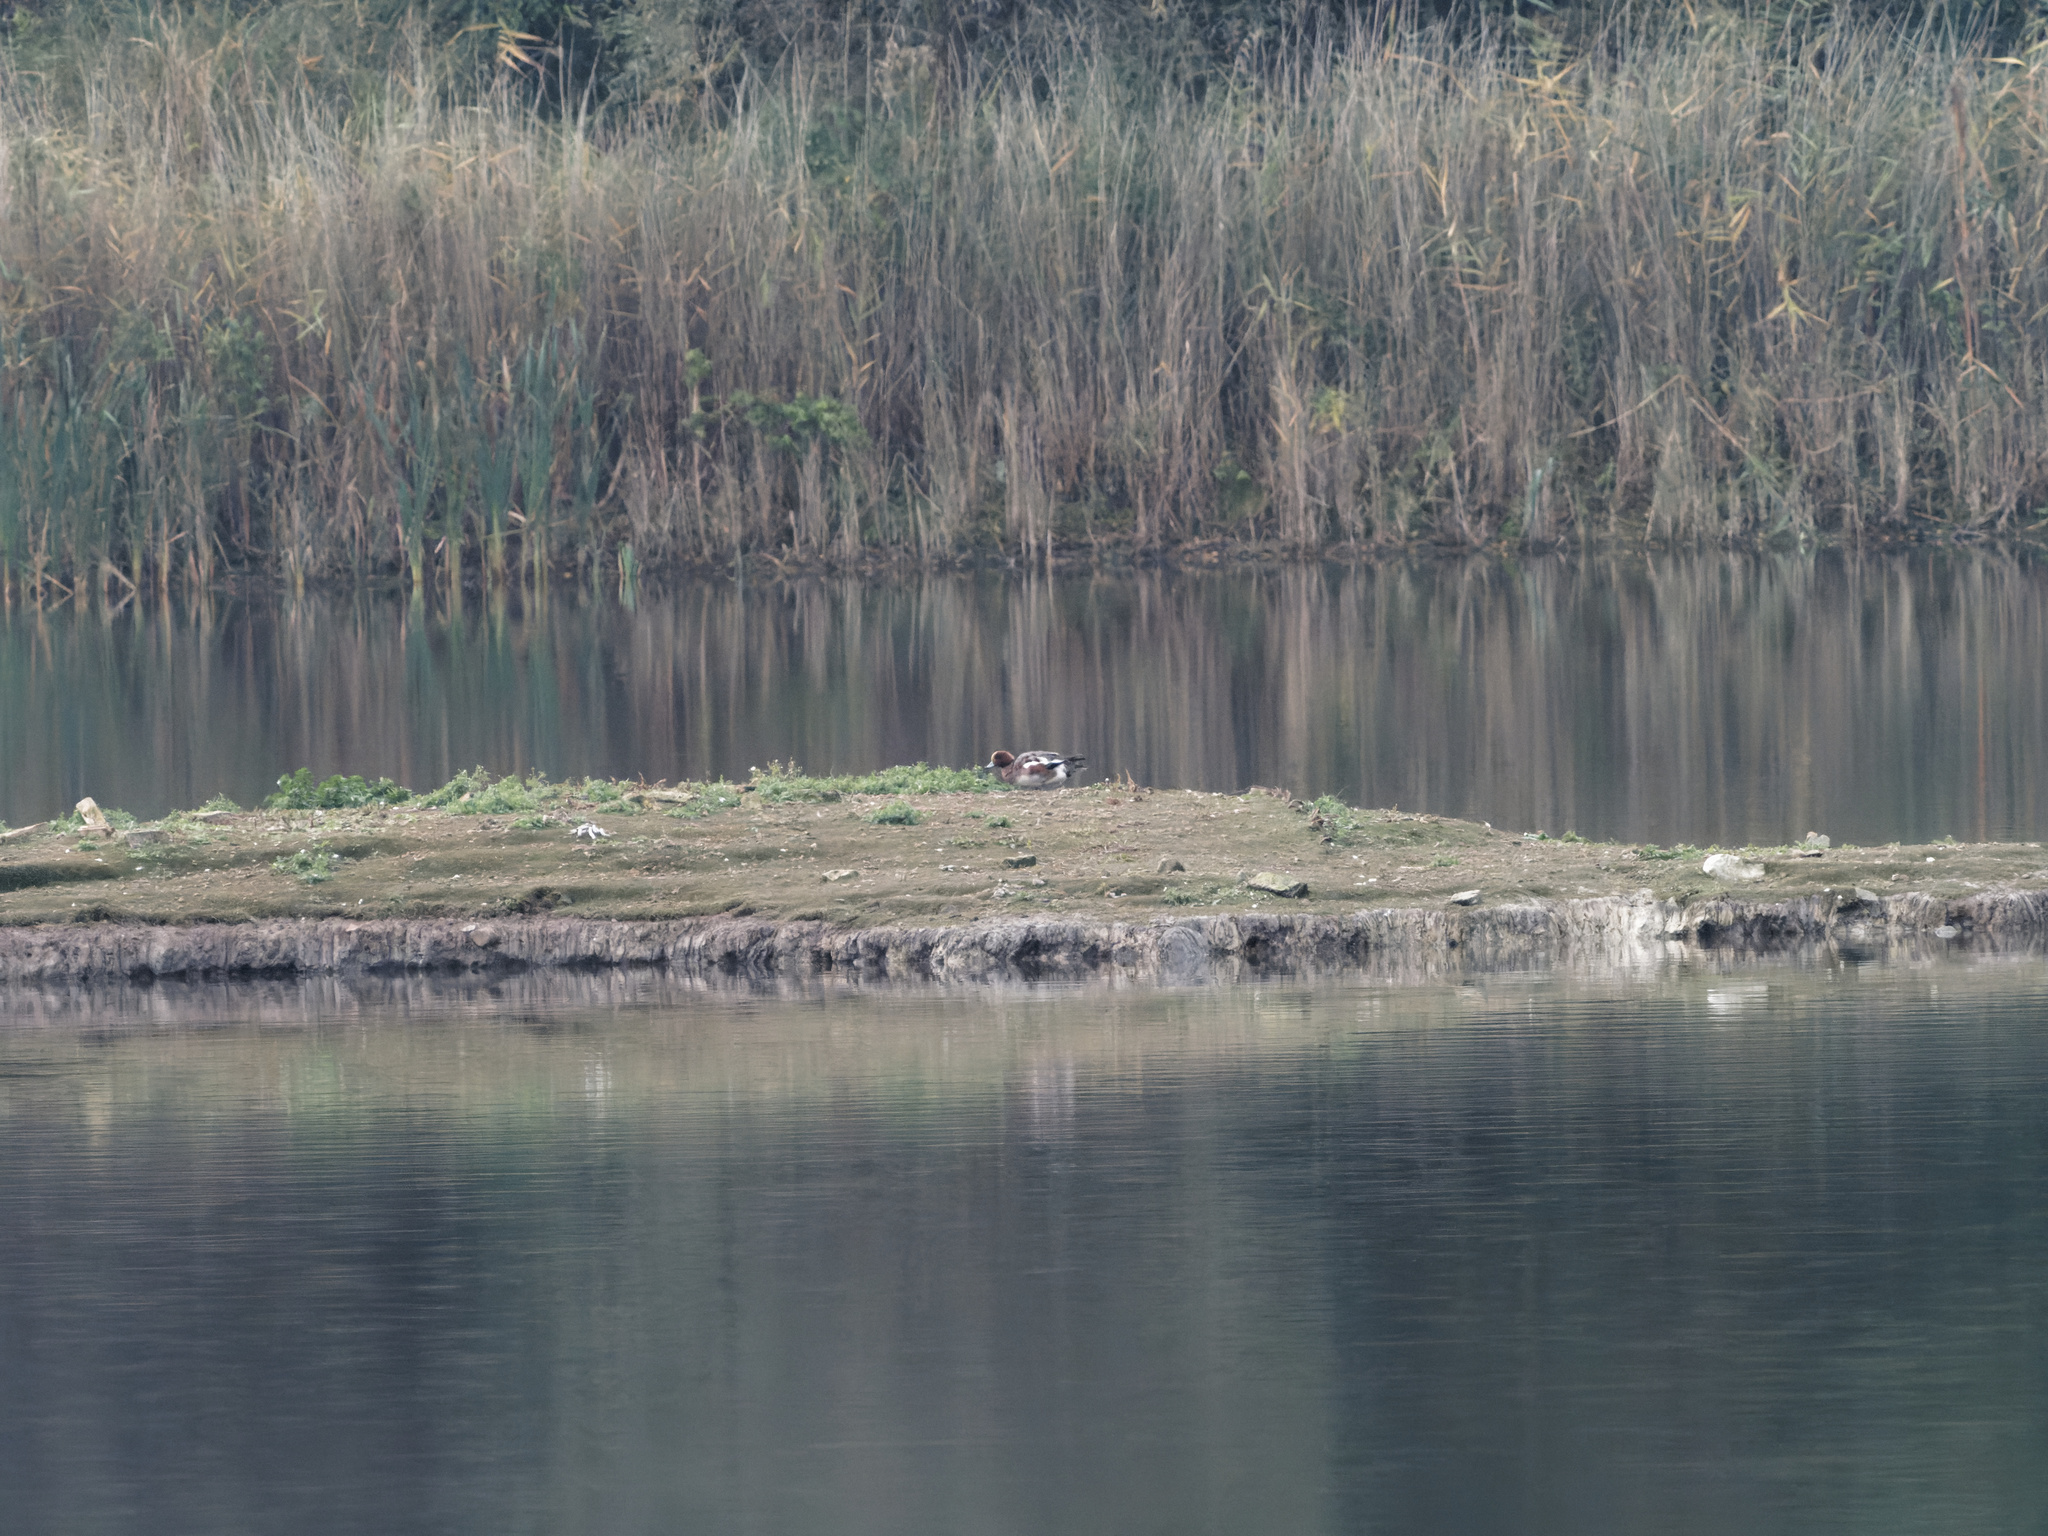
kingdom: Animalia
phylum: Chordata
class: Aves
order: Anseriformes
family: Anatidae
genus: Mareca
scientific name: Mareca penelope
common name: Eurasian wigeon
